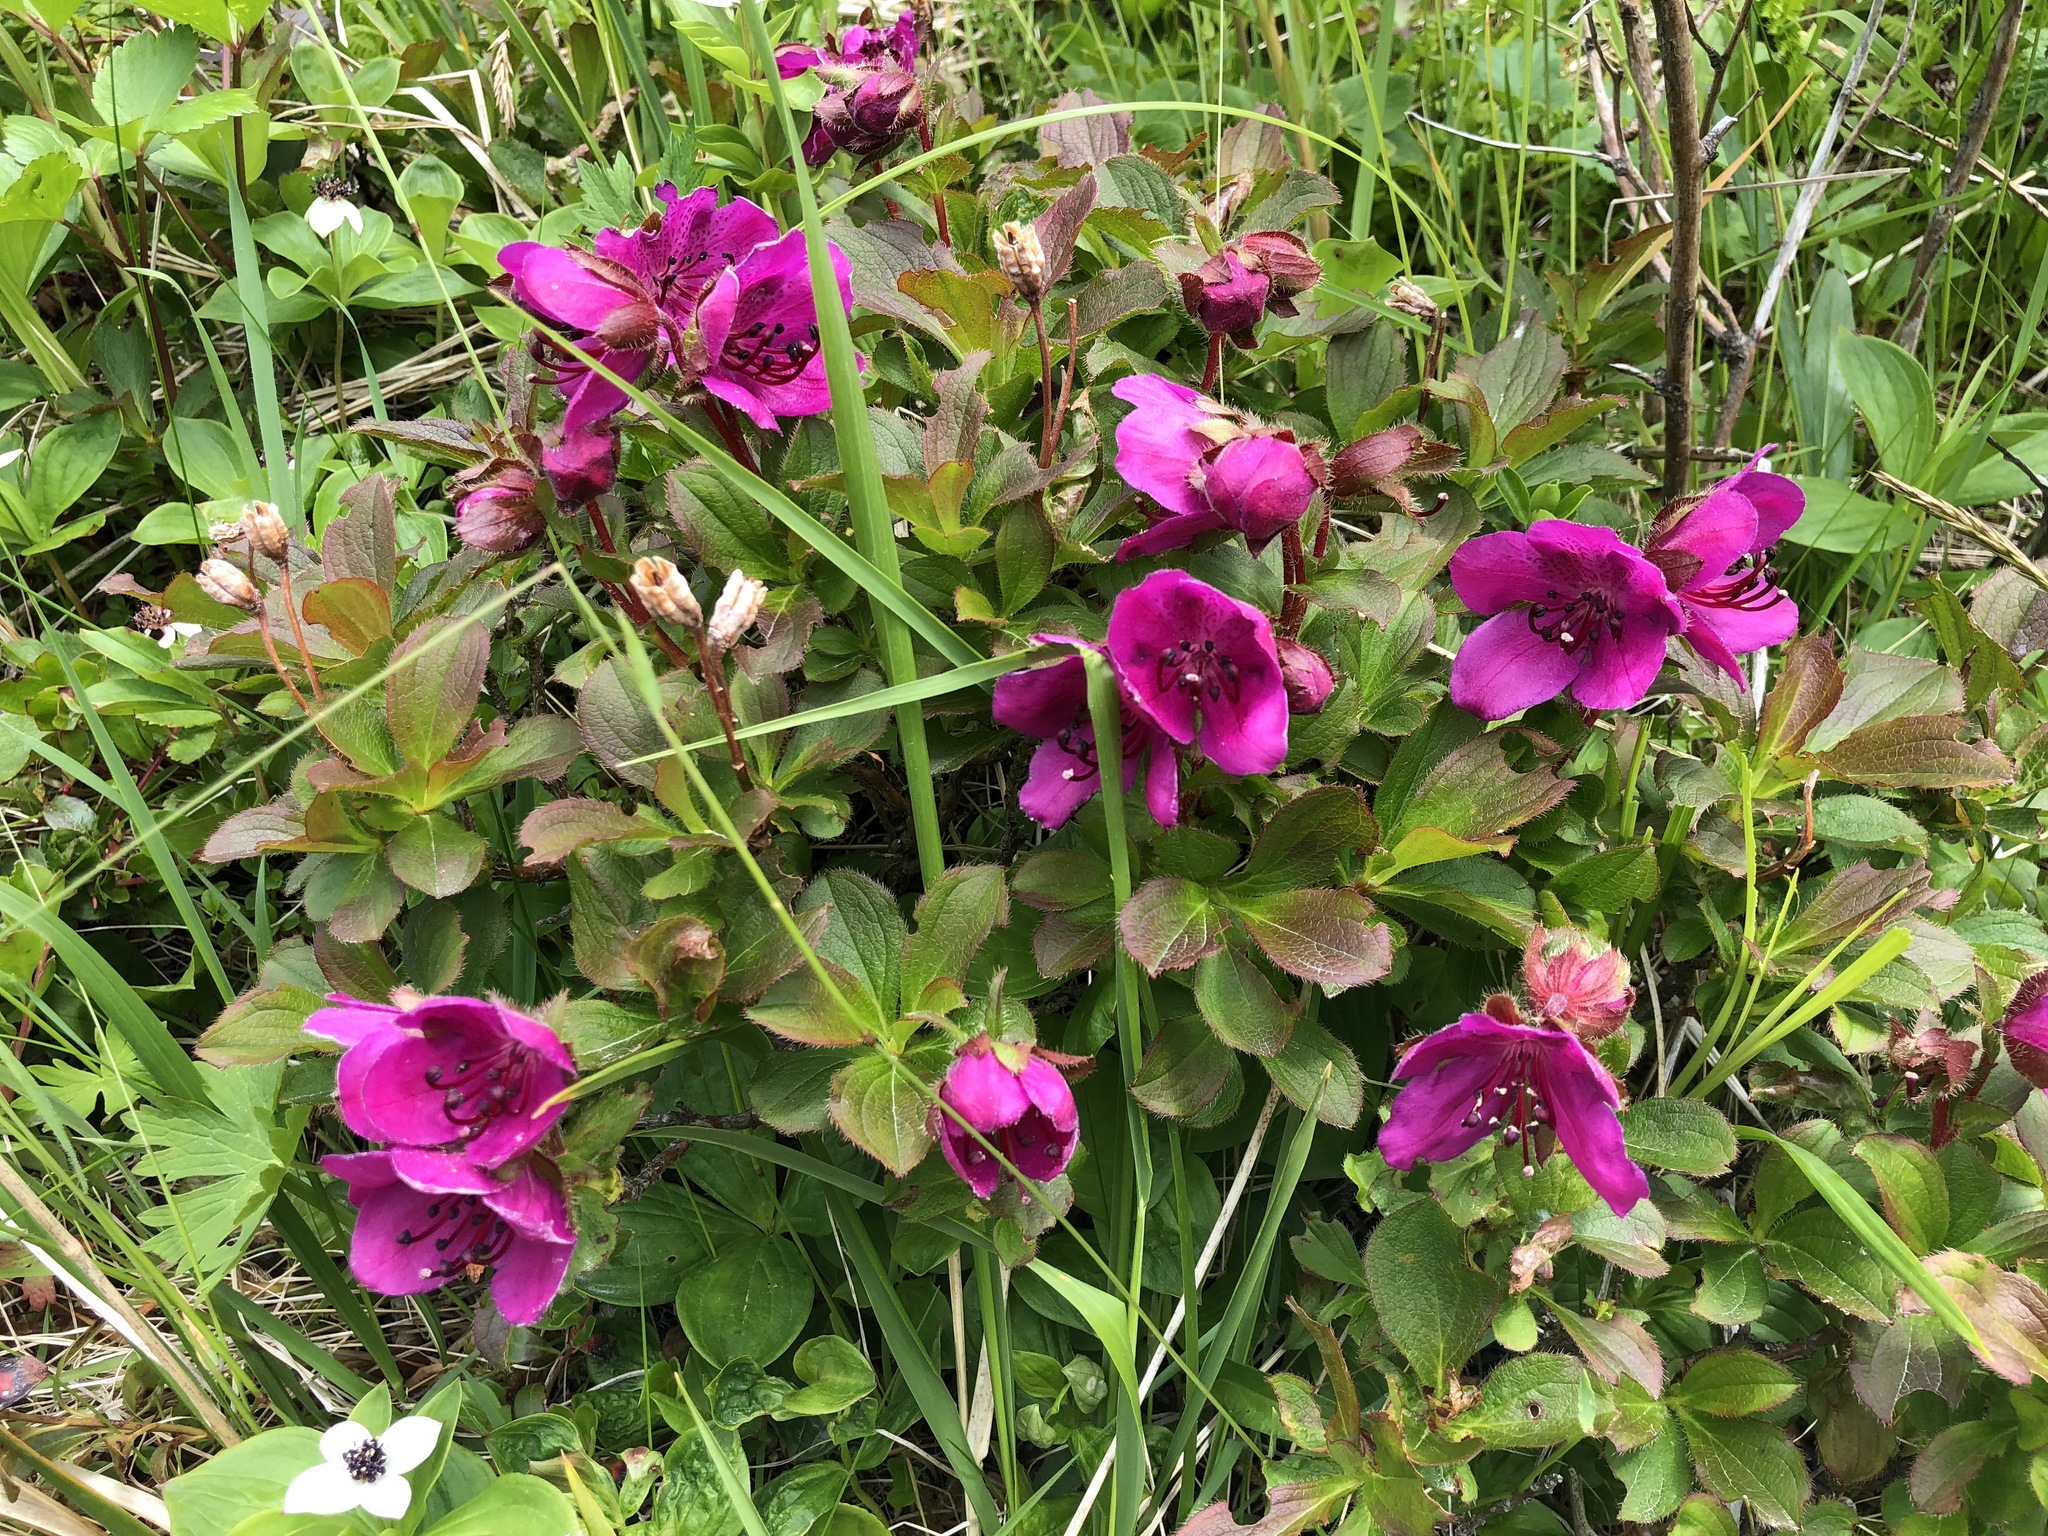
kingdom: Plantae
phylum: Tracheophyta
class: Magnoliopsida
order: Ericales
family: Ericaceae
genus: Rhododendron
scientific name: Rhododendron camtschaticum
